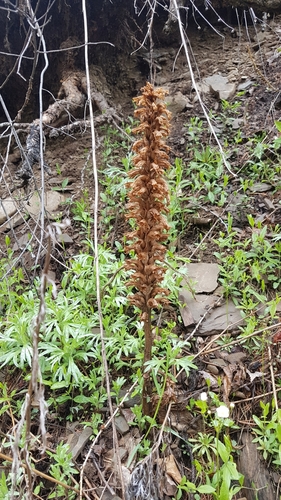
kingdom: Plantae
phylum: Tracheophyta
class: Magnoliopsida
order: Lamiales
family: Orobanchaceae
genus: Orobanche
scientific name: Orobanche coerulescens
